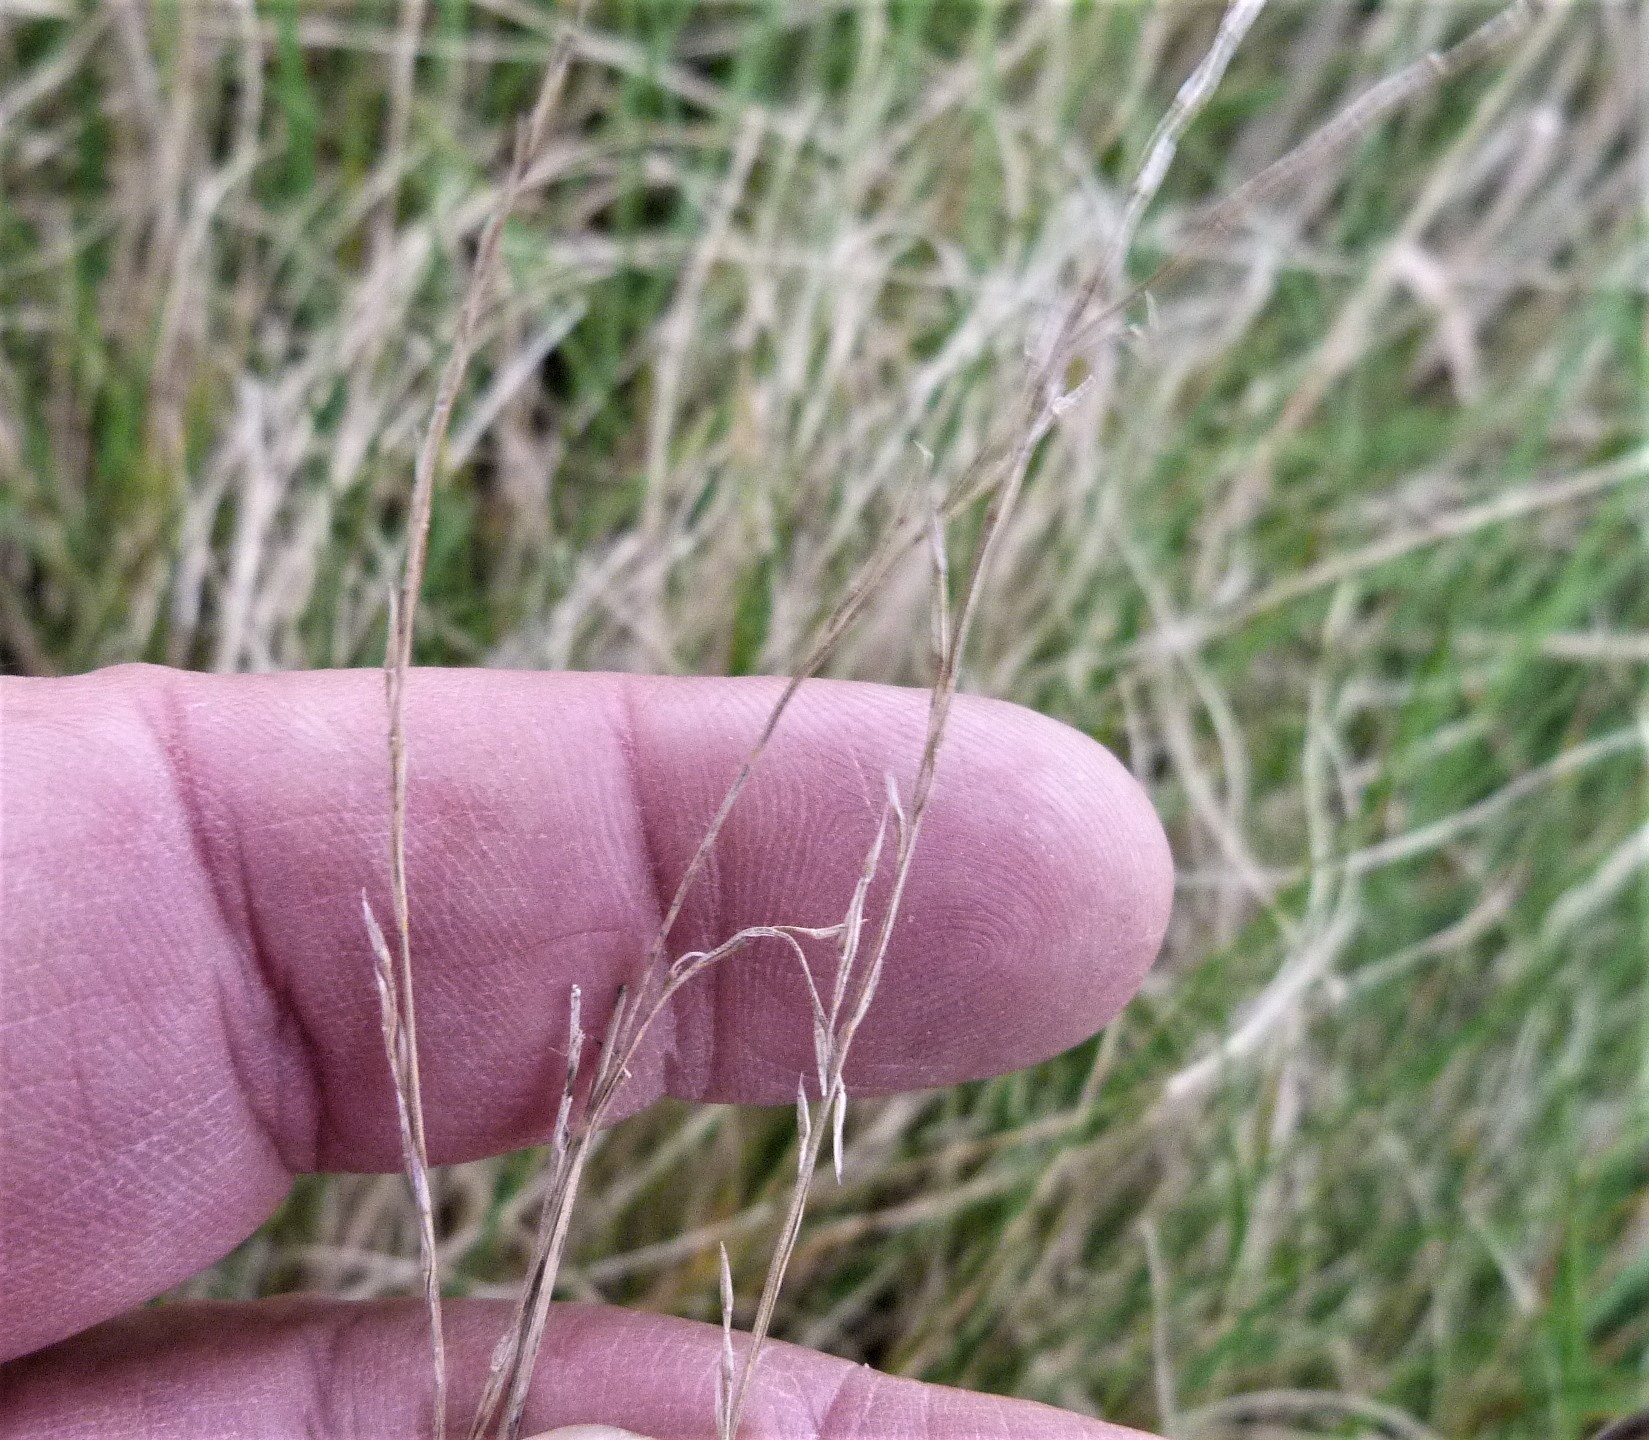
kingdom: Plantae
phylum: Tracheophyta
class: Liliopsida
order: Poales
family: Poaceae
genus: Festuca
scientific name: Festuca rubra
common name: Red fescue
